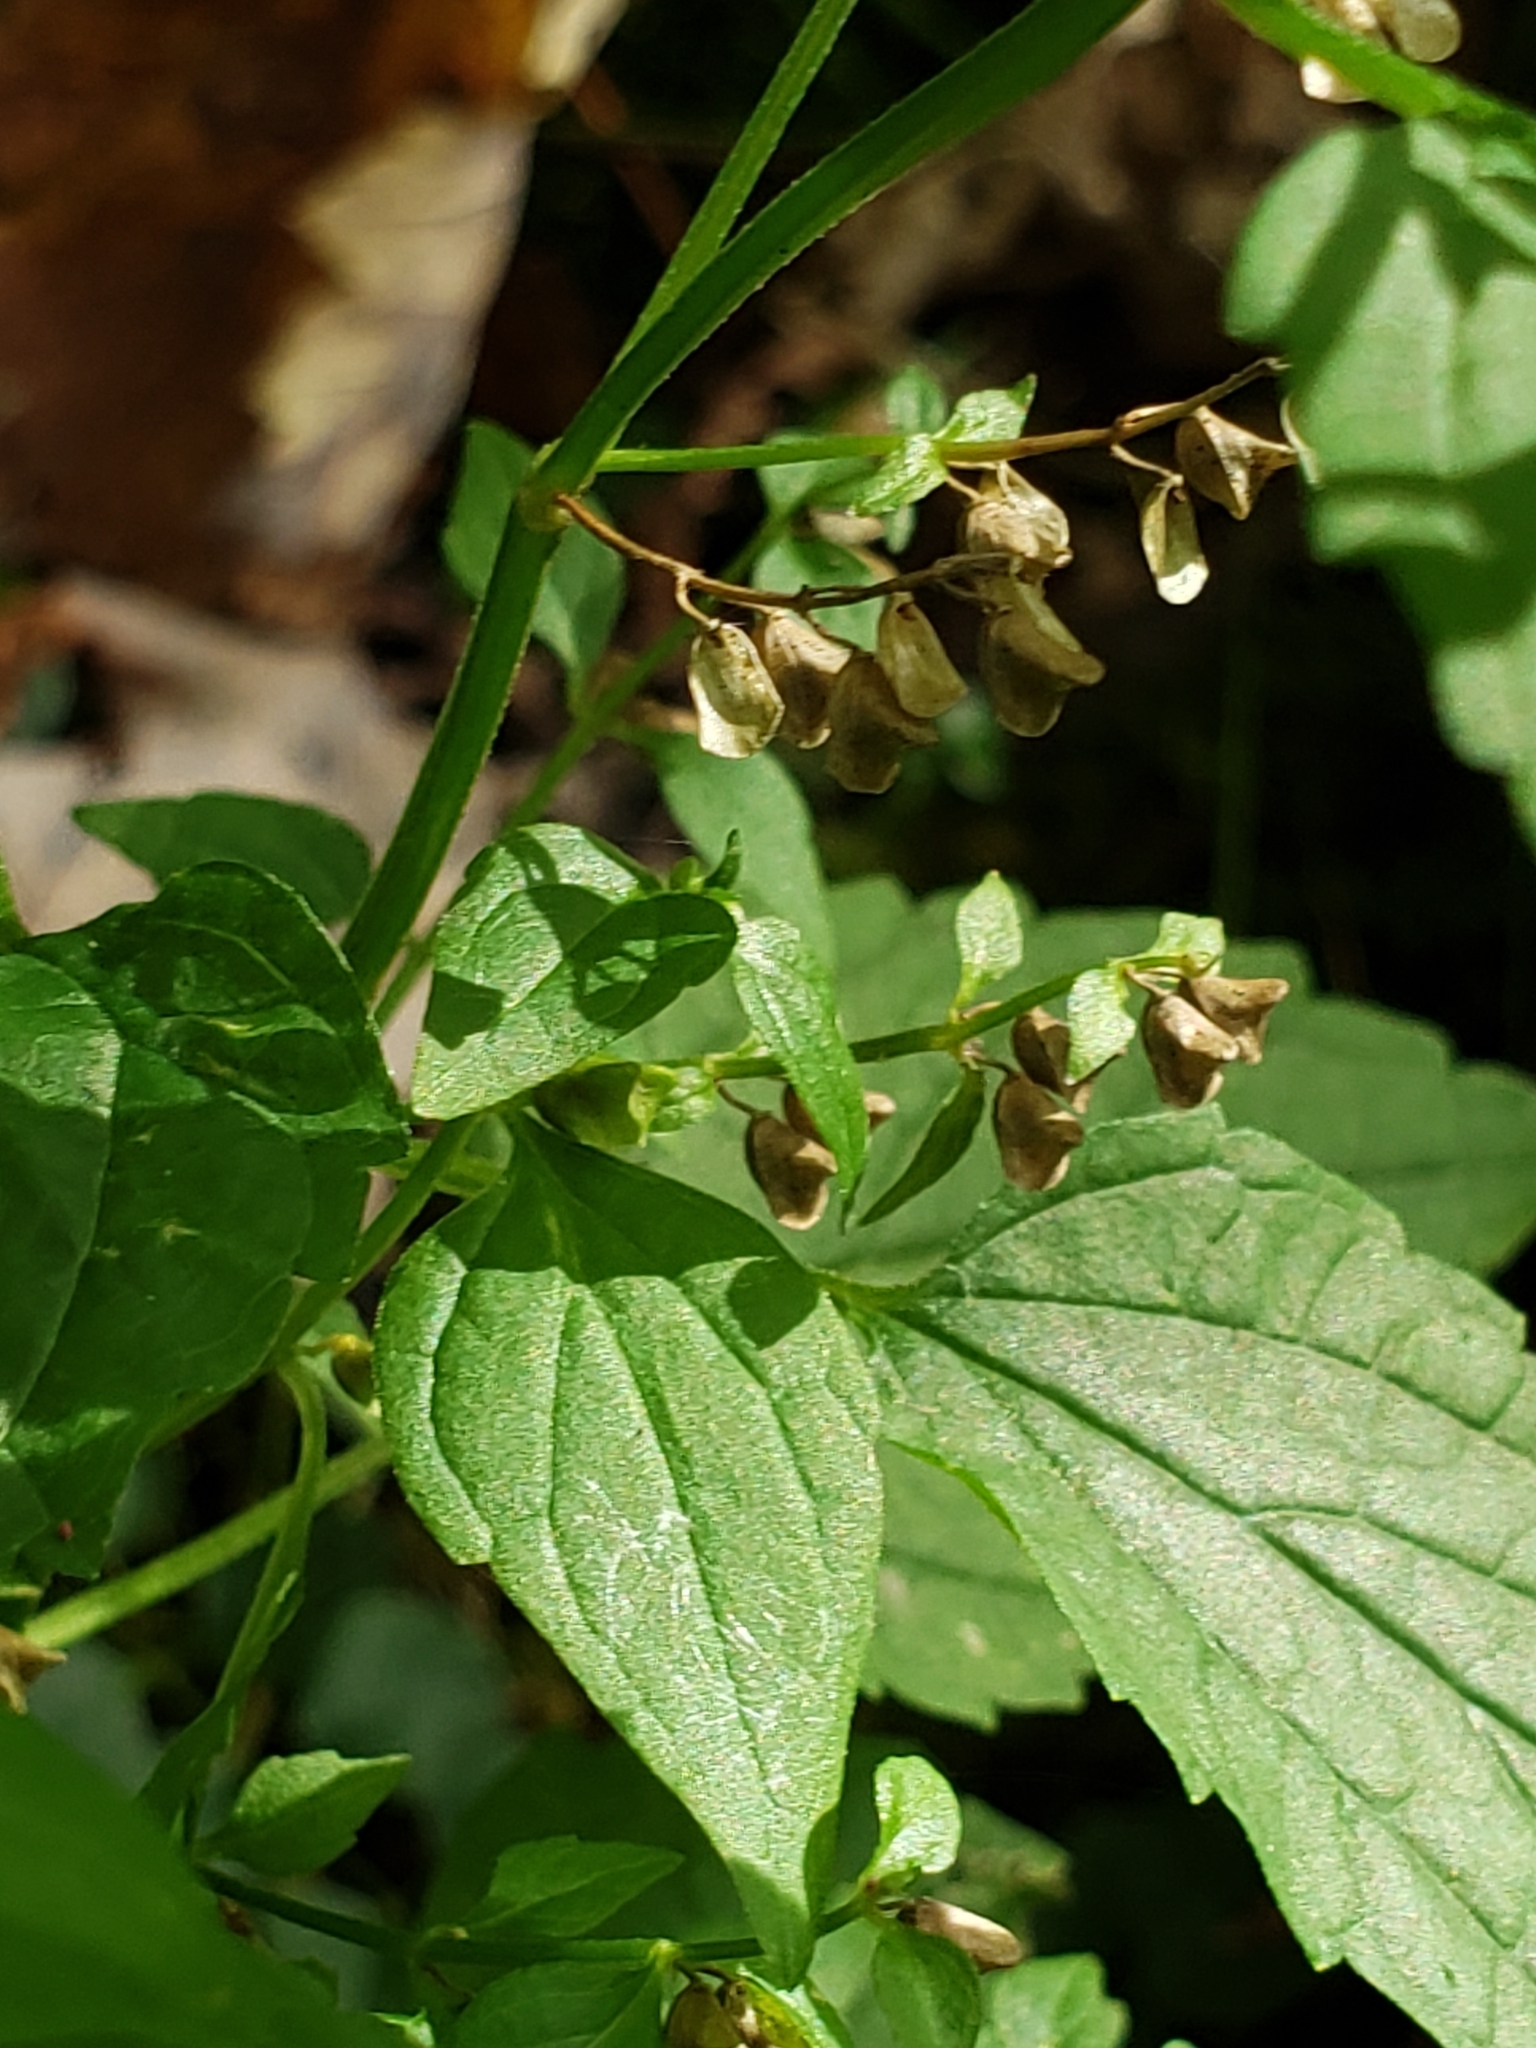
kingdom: Plantae
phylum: Tracheophyta
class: Magnoliopsida
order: Lamiales
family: Lamiaceae
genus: Scutellaria
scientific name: Scutellaria lateriflora
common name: Blue skullcap
